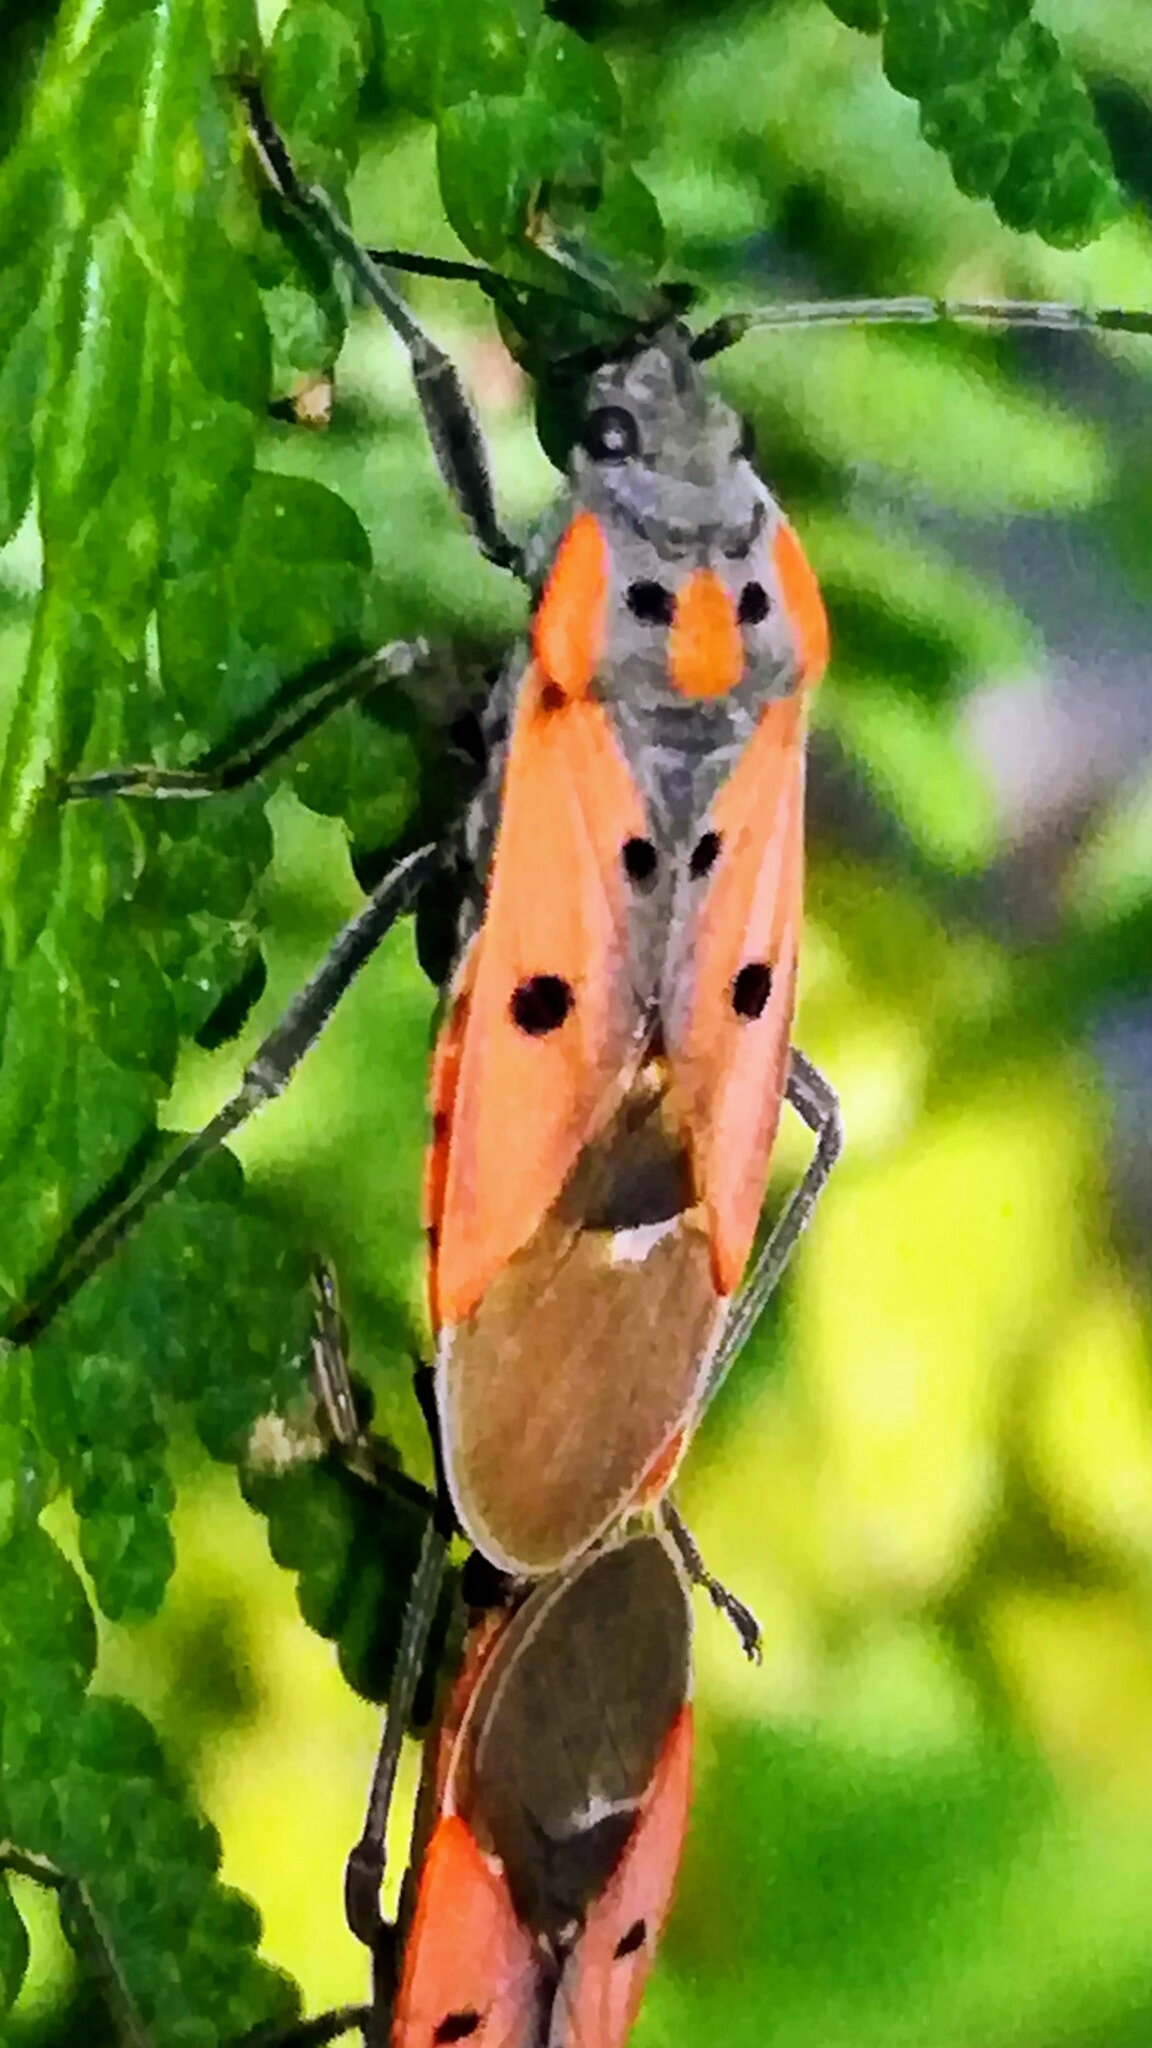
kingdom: Animalia
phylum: Arthropoda
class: Insecta
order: Hemiptera
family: Lygaeidae
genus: Lygaeus
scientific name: Lygaeus creticus
